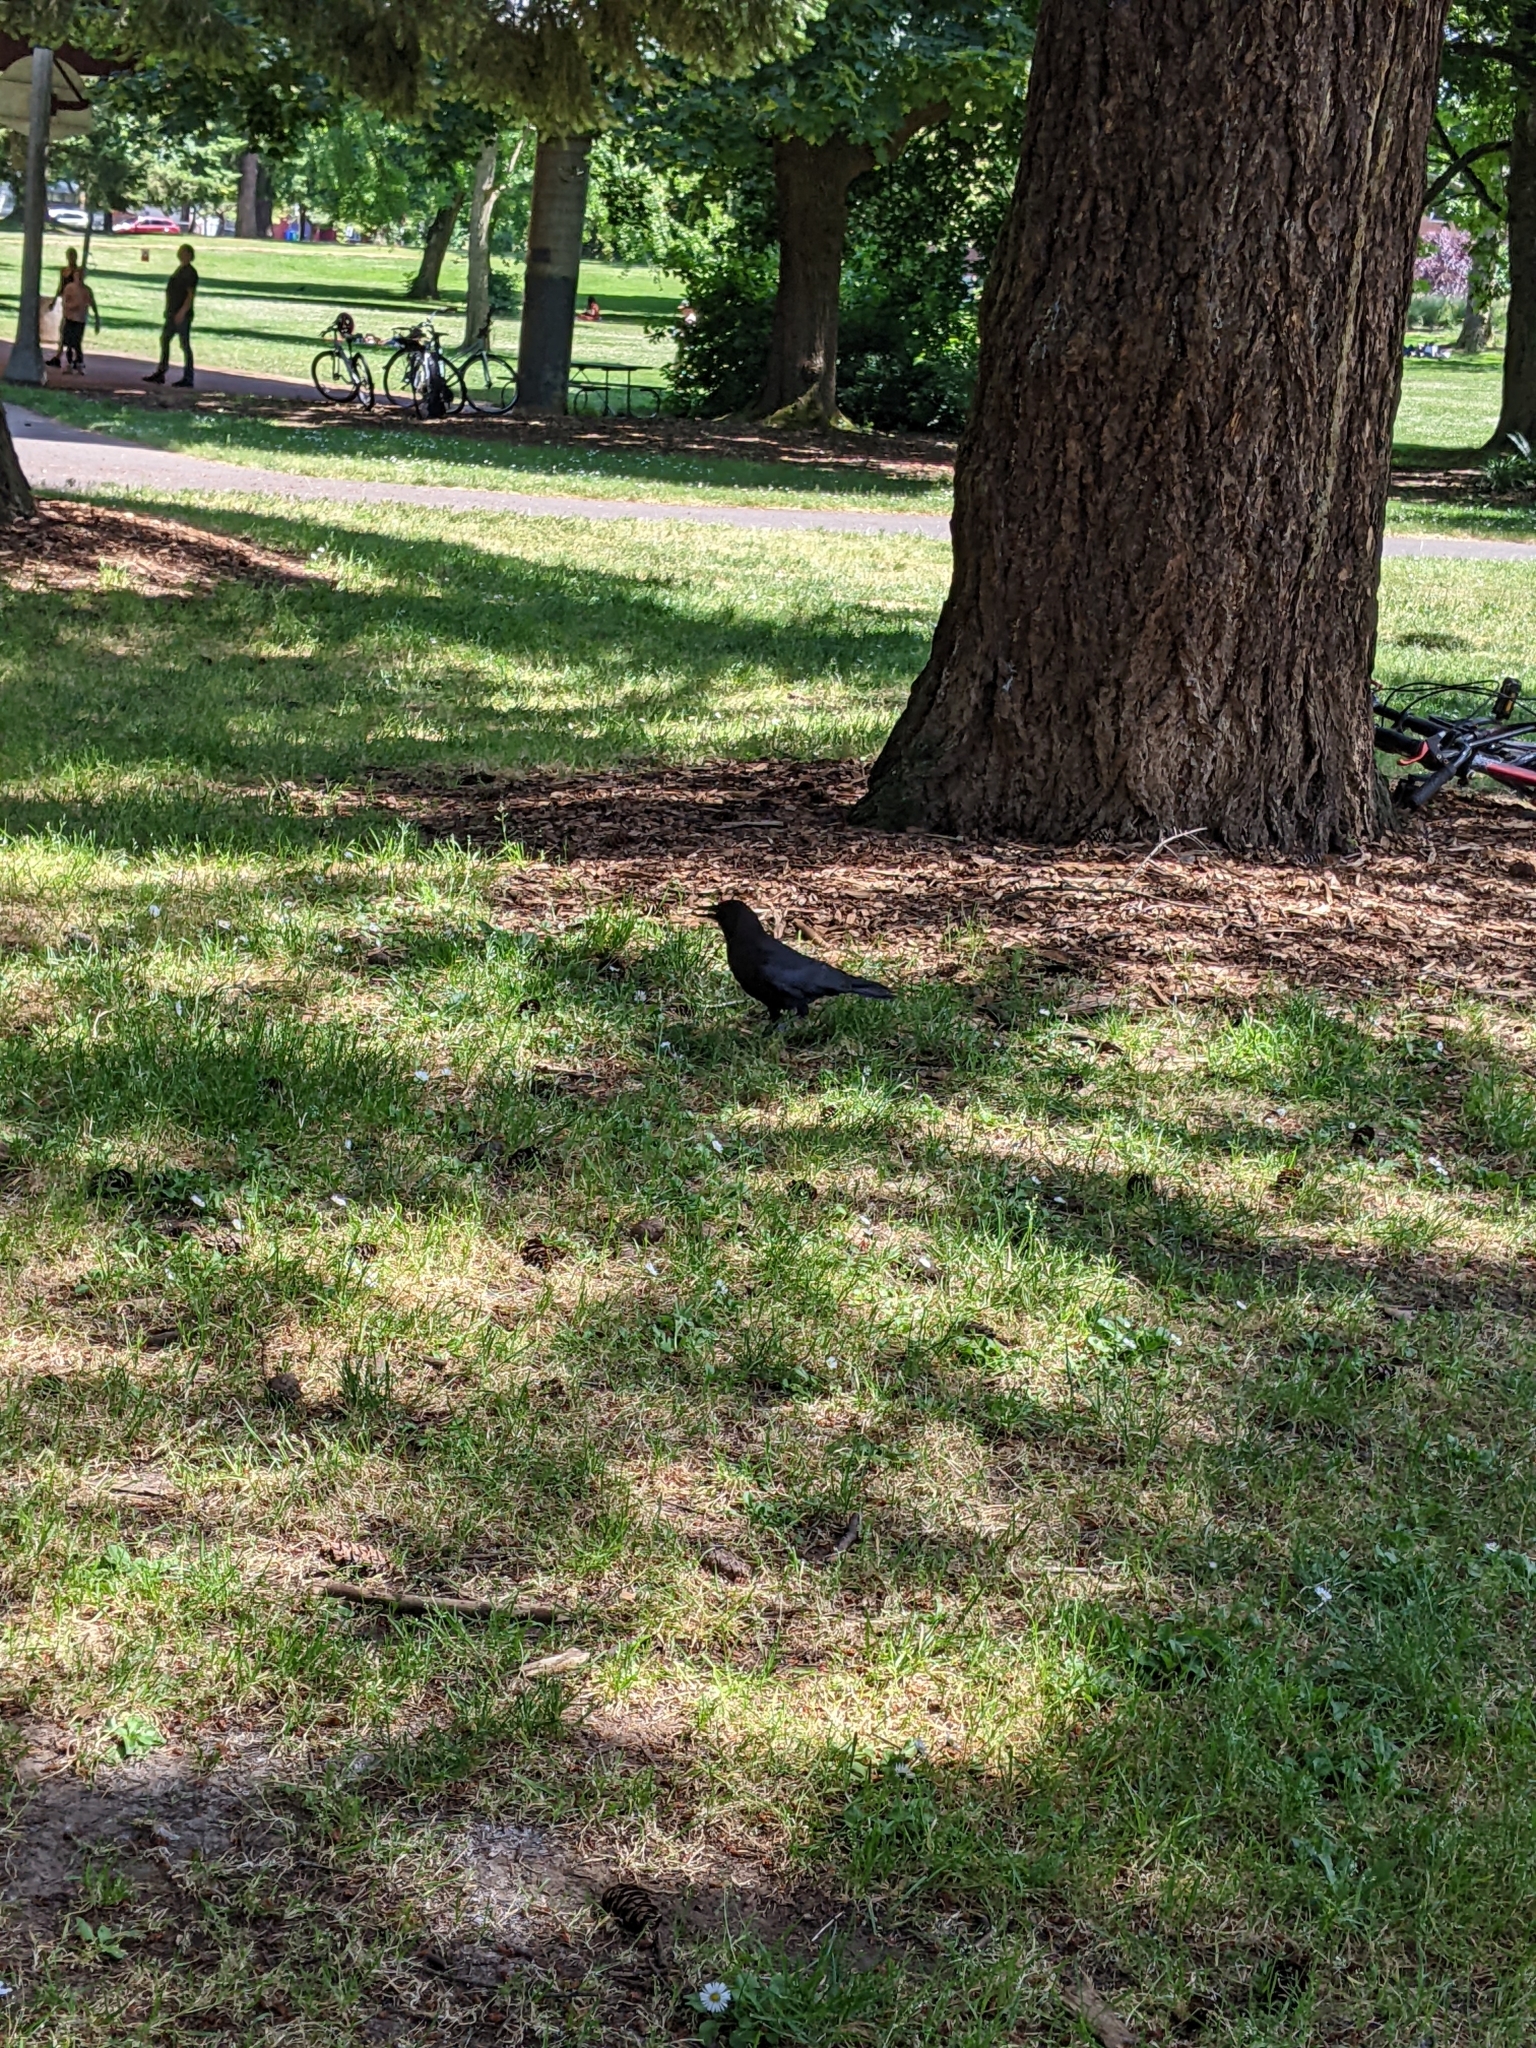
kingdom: Animalia
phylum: Chordata
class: Aves
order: Passeriformes
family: Corvidae
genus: Corvus
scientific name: Corvus brachyrhynchos
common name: American crow
